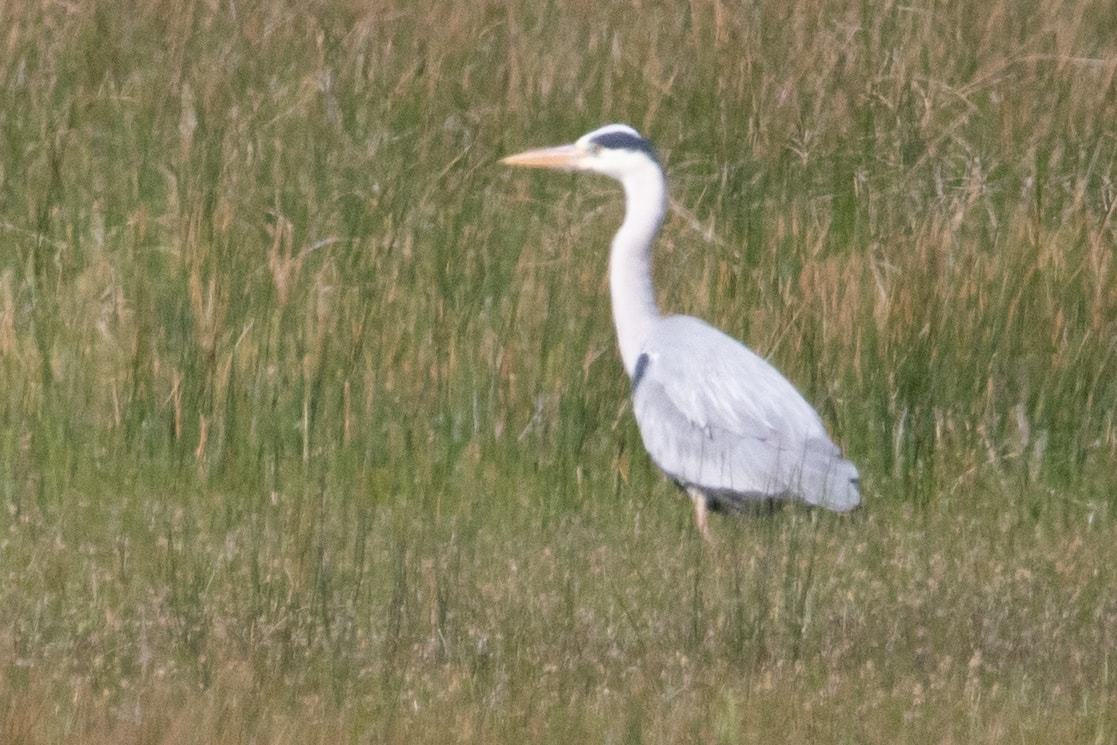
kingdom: Animalia
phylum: Chordata
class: Aves
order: Pelecaniformes
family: Ardeidae
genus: Ardea
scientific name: Ardea cinerea
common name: Grey heron
